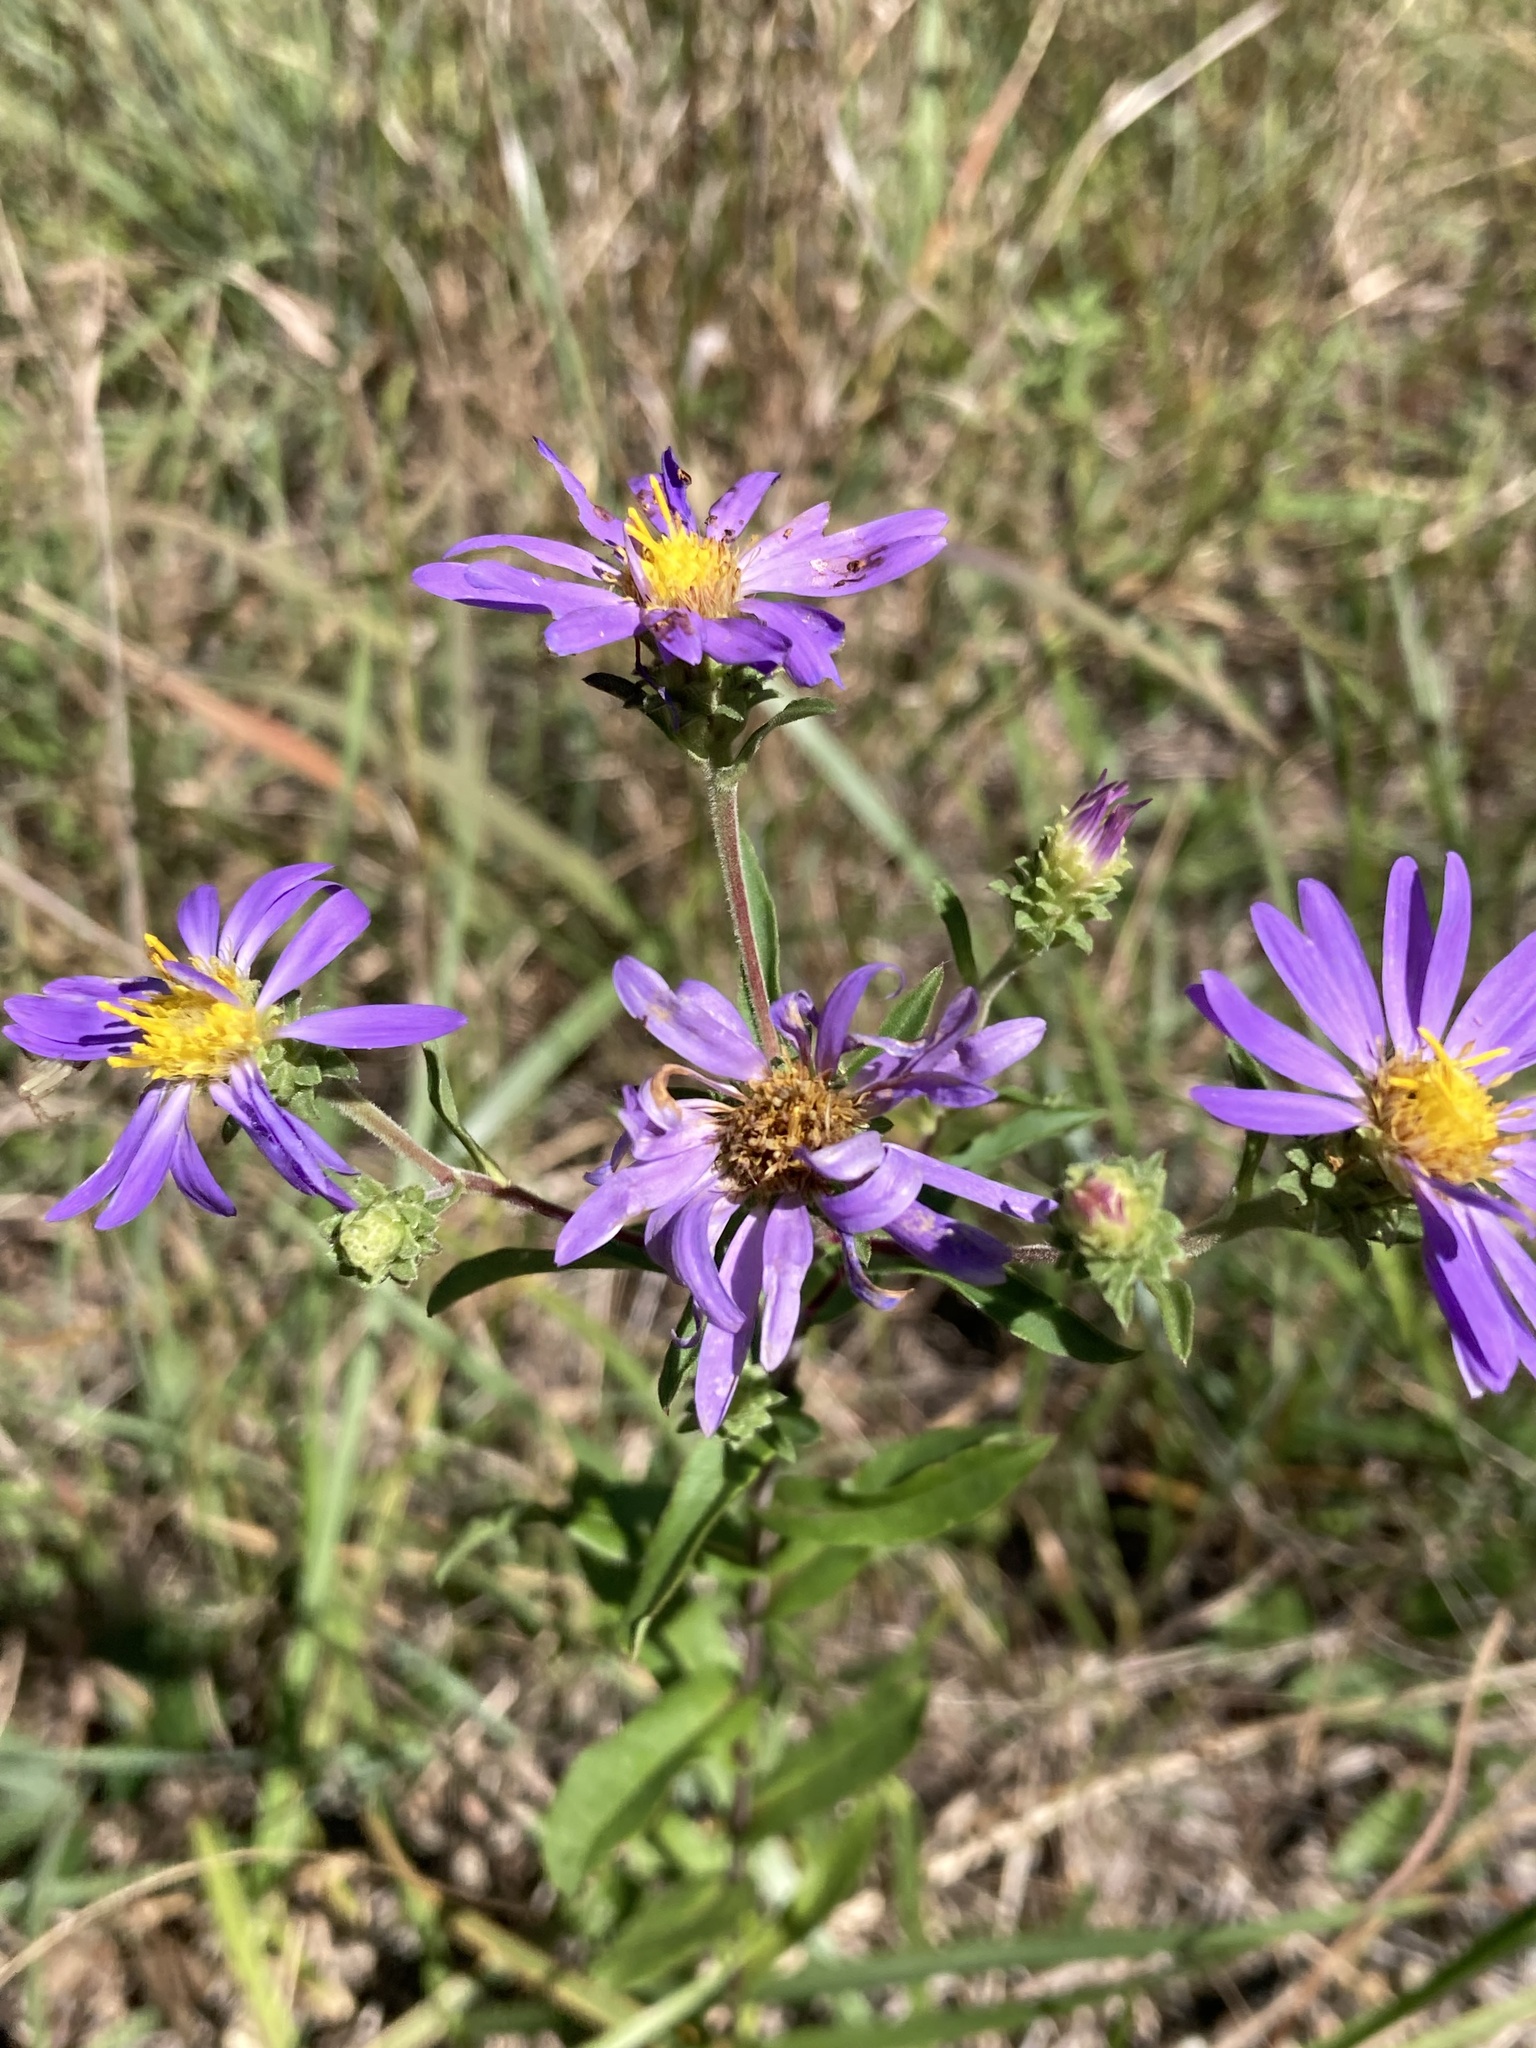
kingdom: Plantae
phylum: Tracheophyta
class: Magnoliopsida
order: Asterales
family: Asteraceae
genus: Eurybia
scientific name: Eurybia spectabilis
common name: Low showy aster
